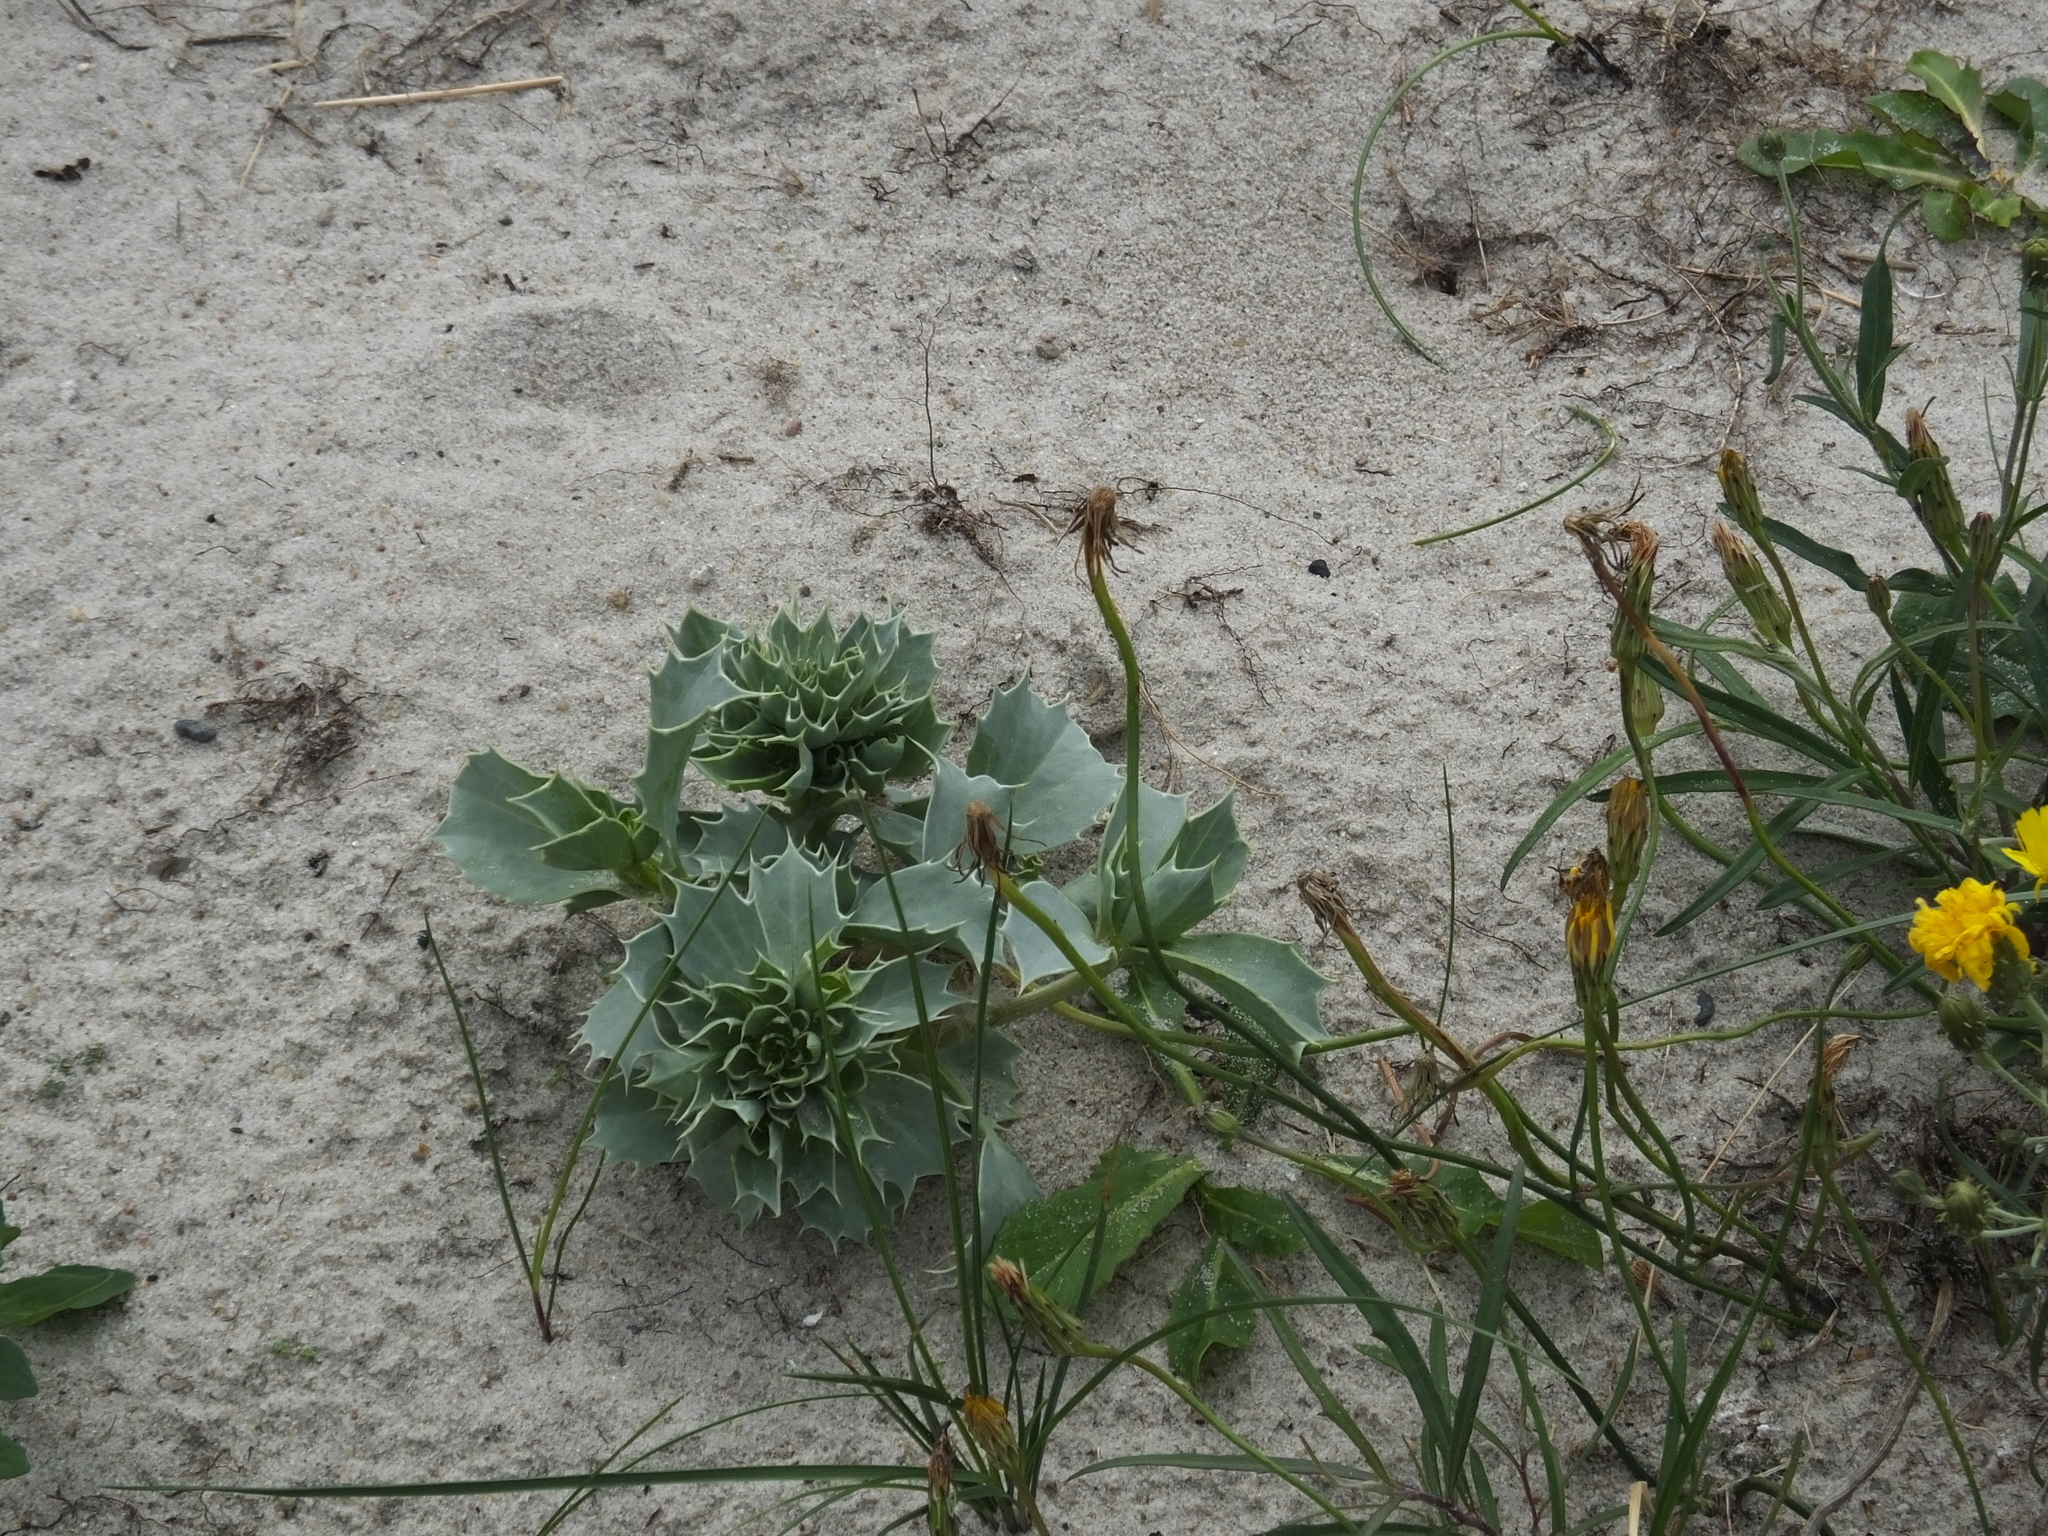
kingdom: Plantae
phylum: Tracheophyta
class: Magnoliopsida
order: Apiales
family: Apiaceae
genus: Eryngium
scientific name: Eryngium maritimum
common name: Sea-holly
